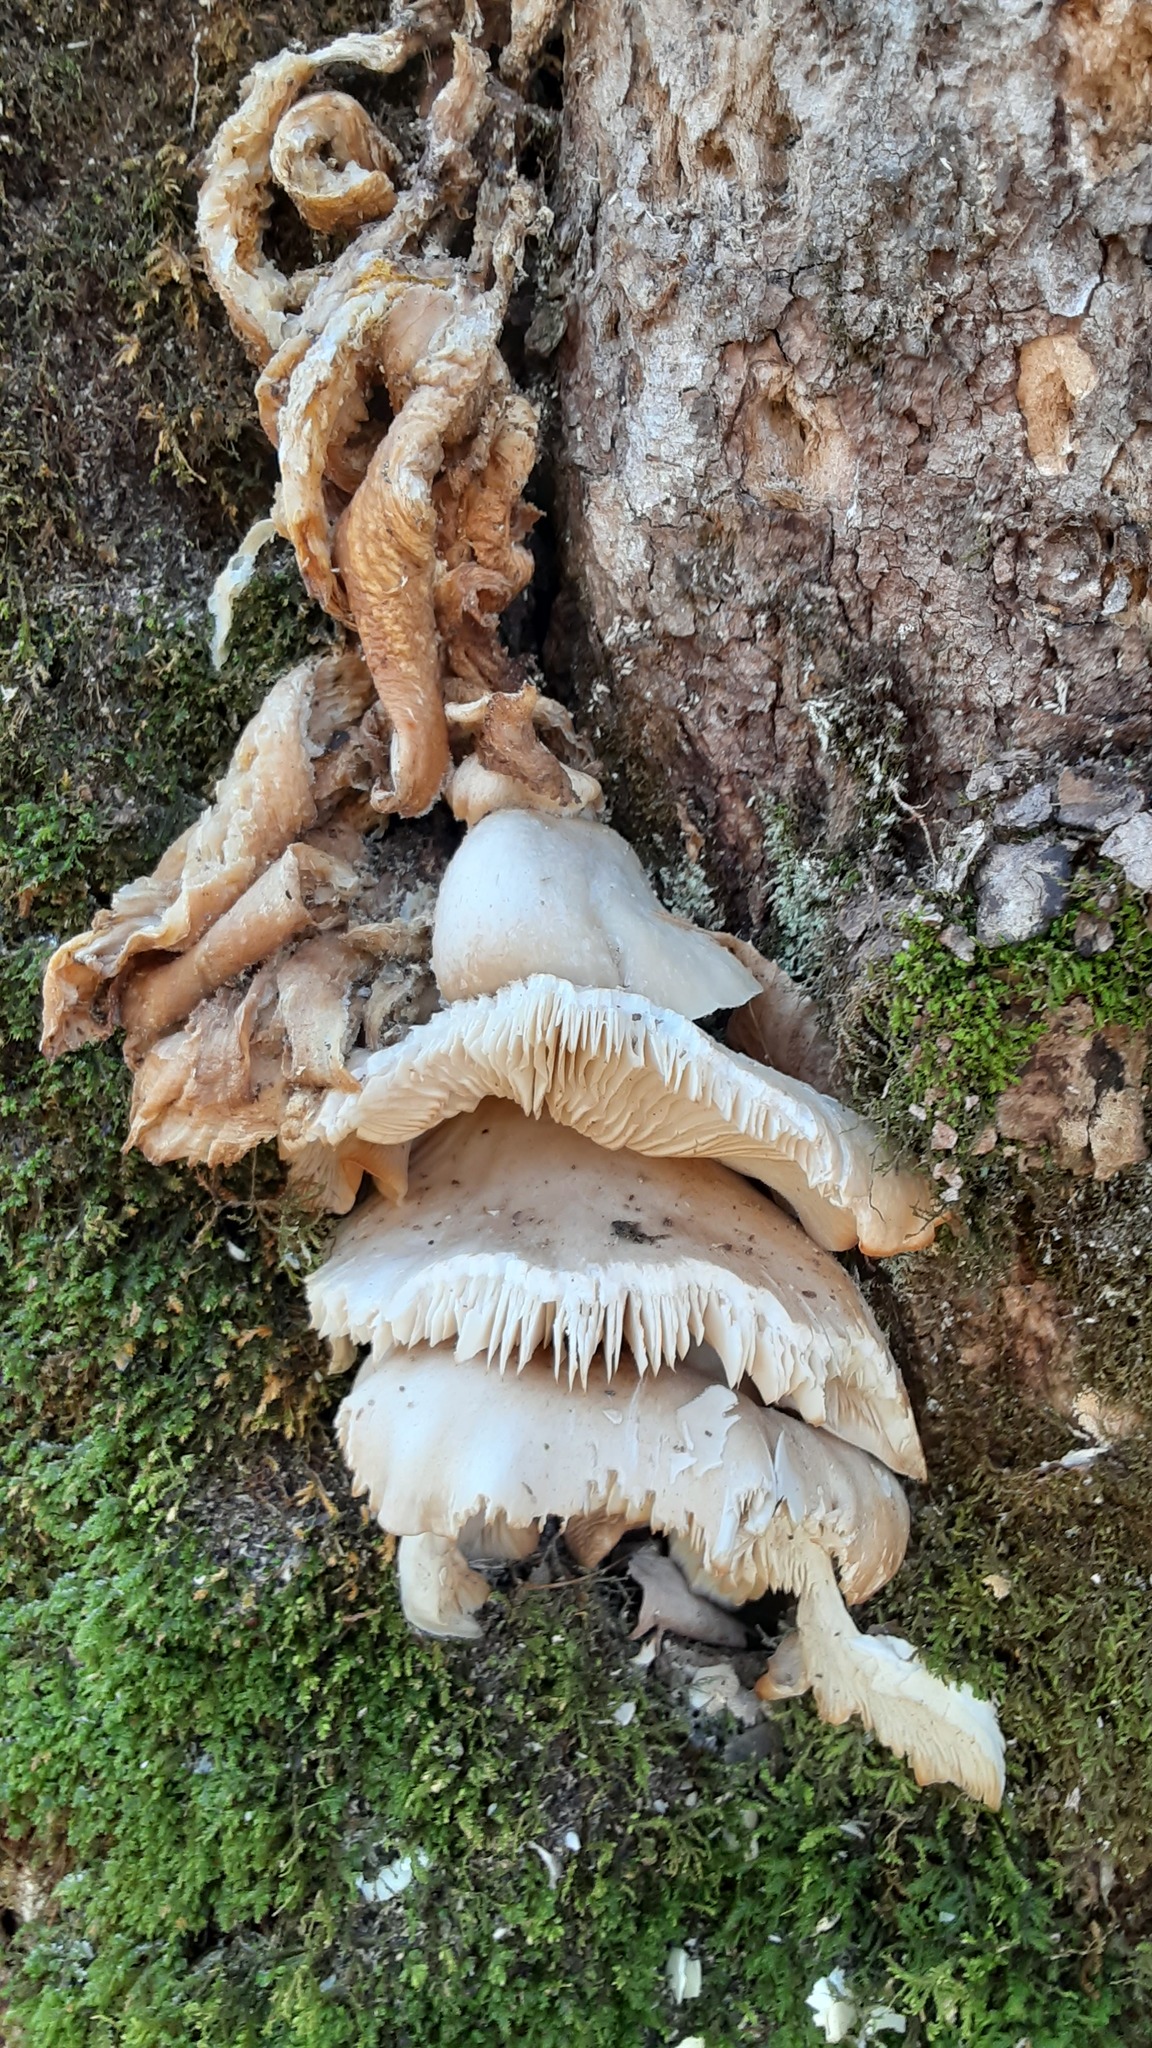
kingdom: Fungi
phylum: Basidiomycota
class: Agaricomycetes
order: Agaricales
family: Pleurotaceae
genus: Pleurotus
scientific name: Pleurotus pulmonarius
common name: Pale oyster
